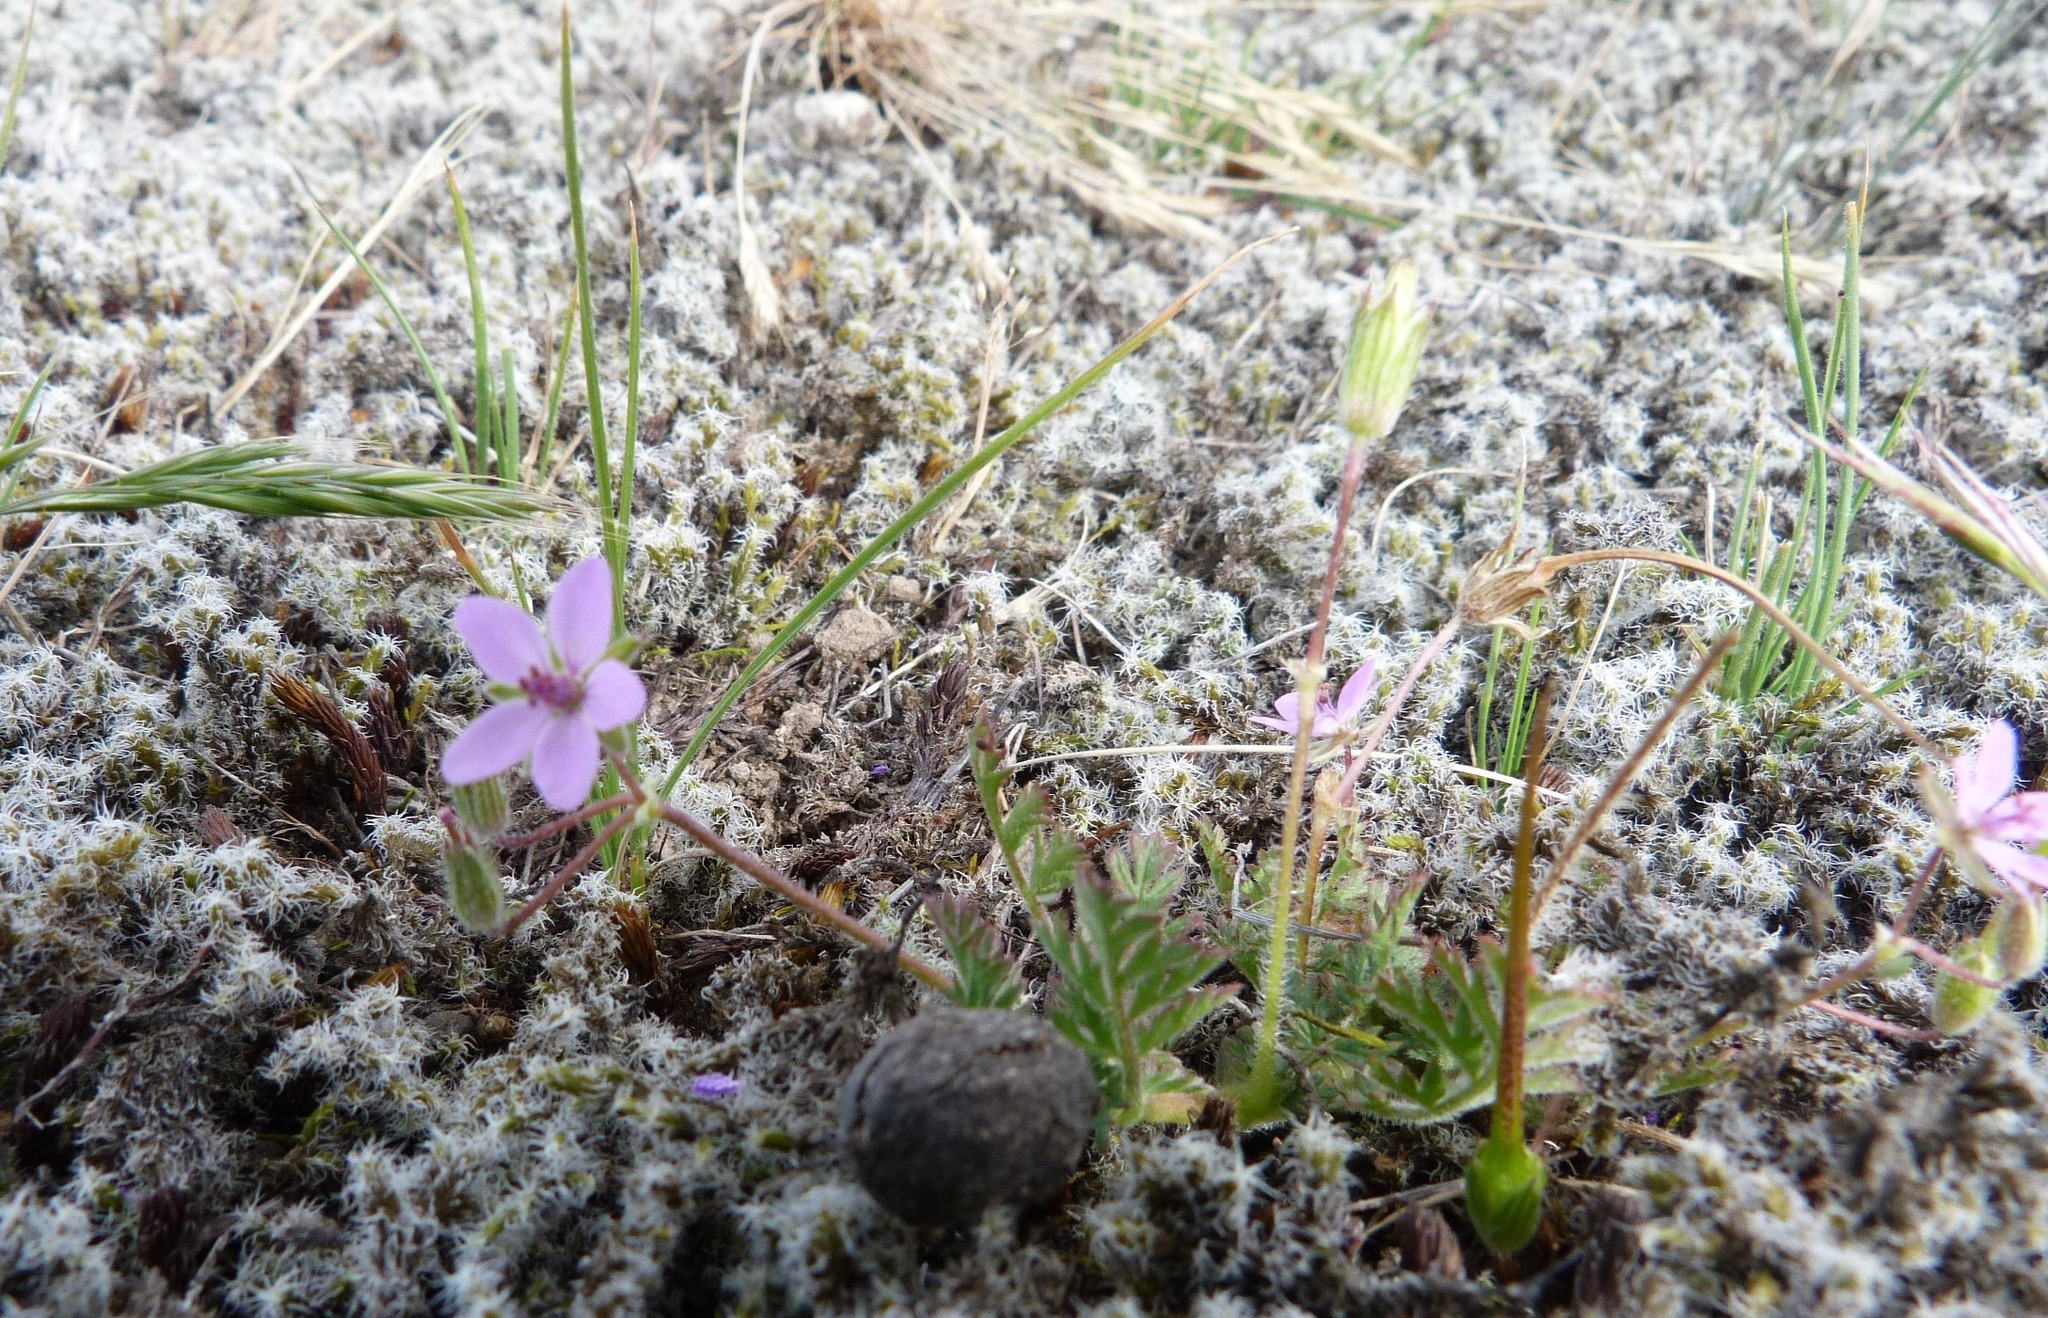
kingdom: Plantae
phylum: Tracheophyta
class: Magnoliopsida
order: Geraniales
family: Geraniaceae
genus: Erodium
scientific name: Erodium cicutarium
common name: Common stork's-bill
